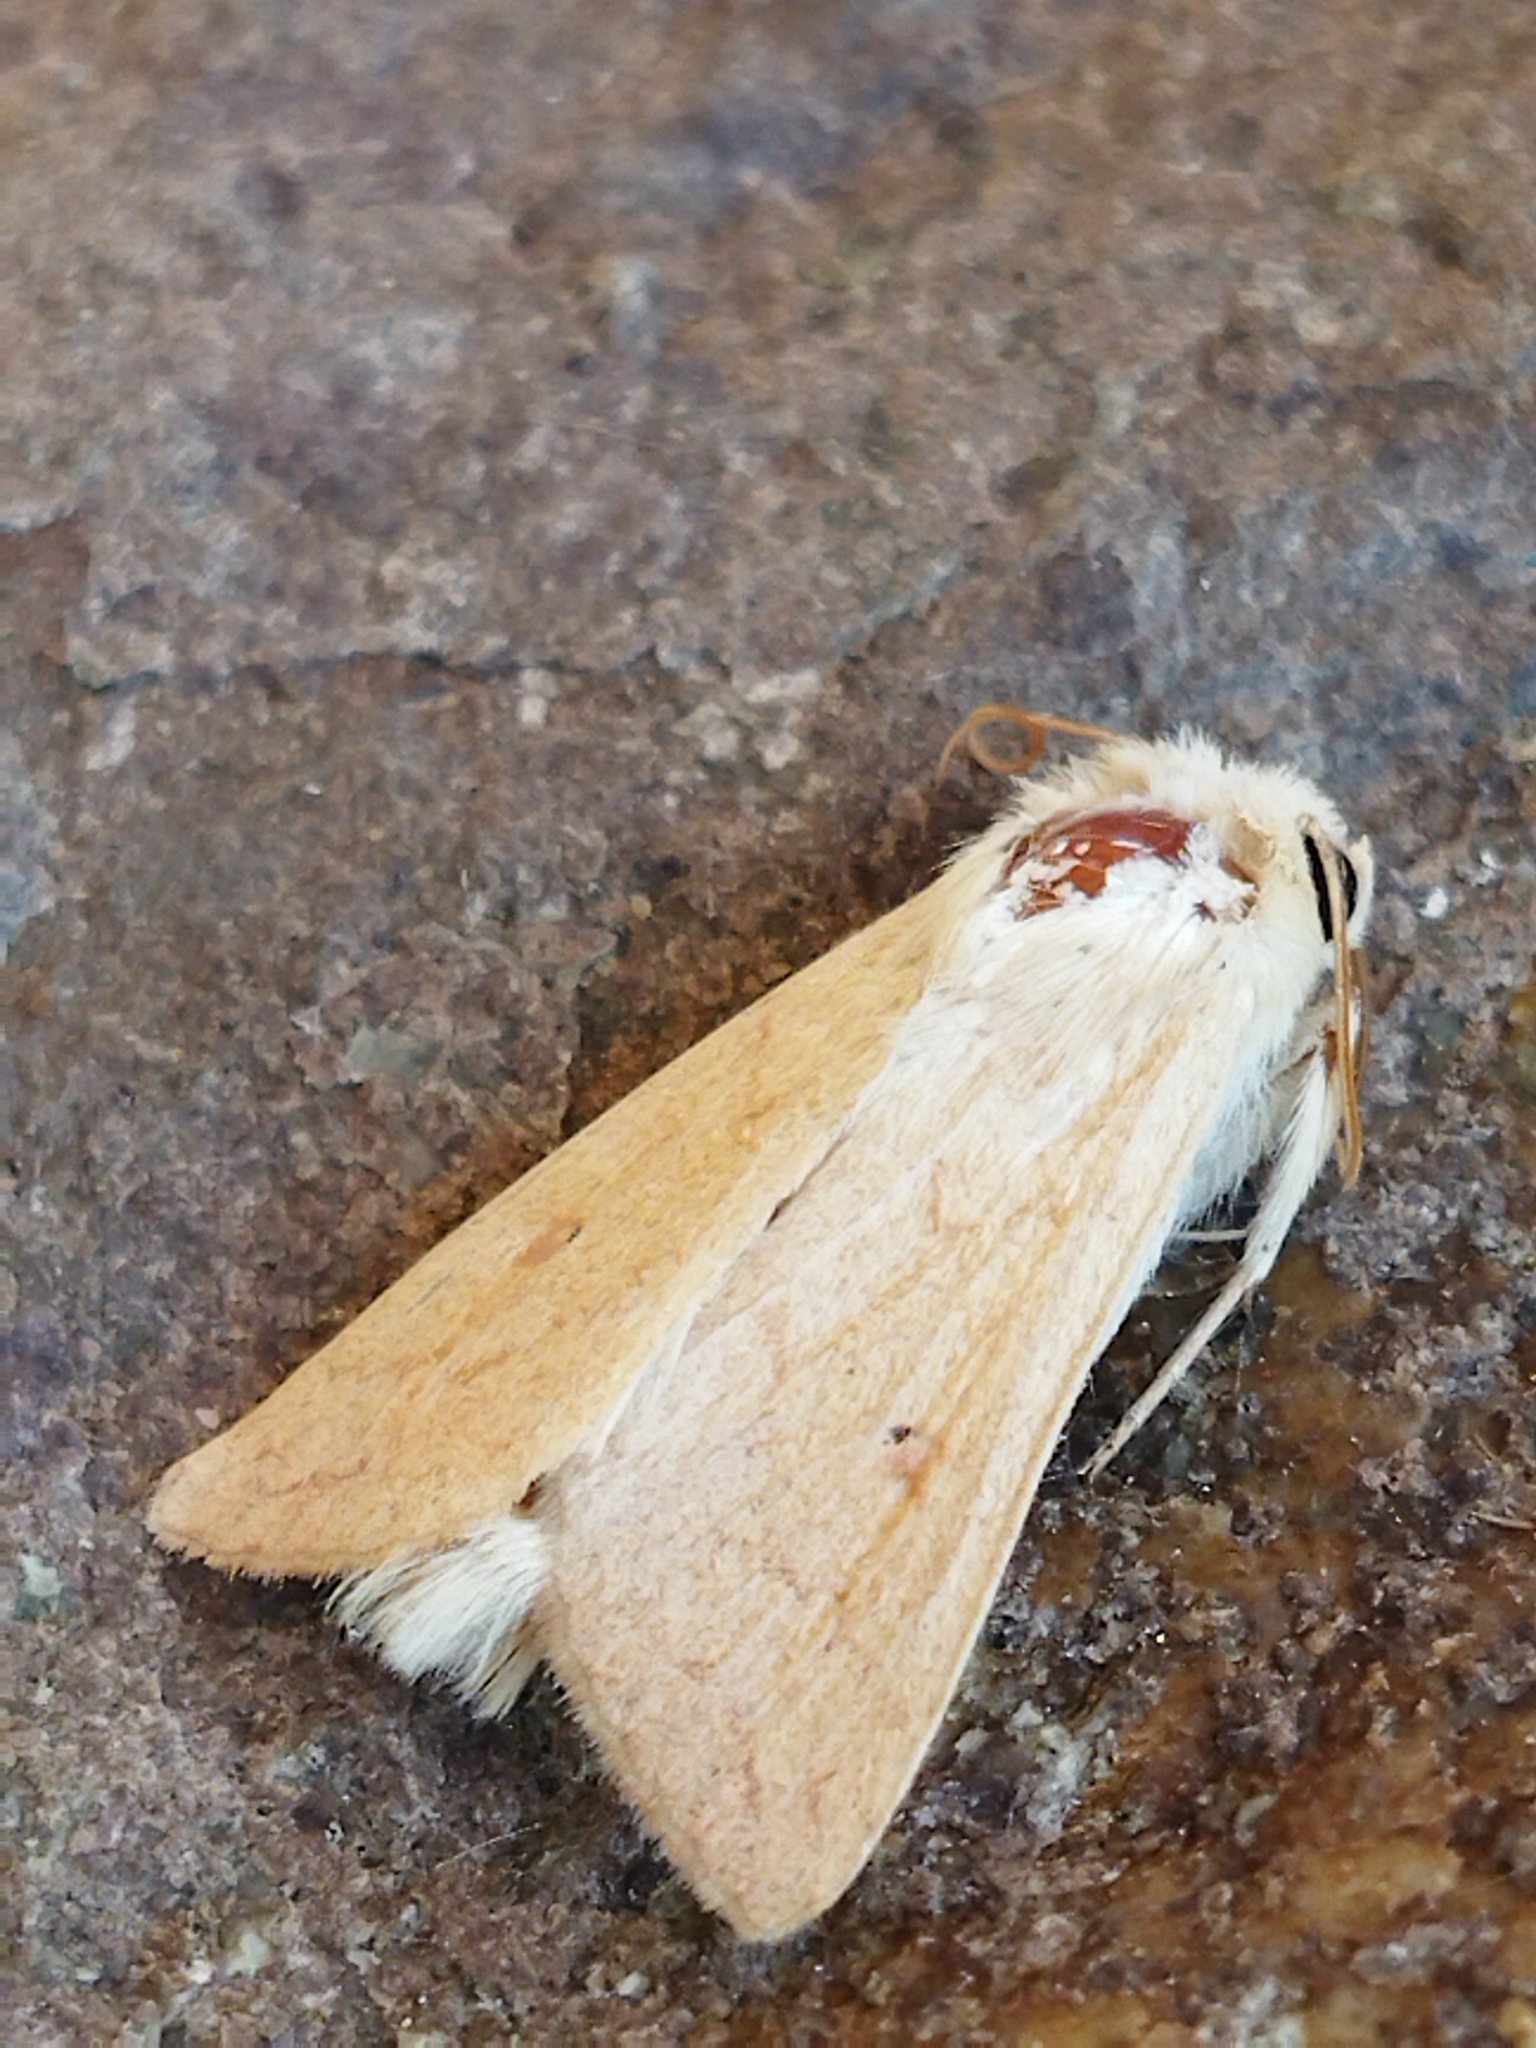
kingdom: Animalia
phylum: Arthropoda
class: Insecta
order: Lepidoptera
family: Noctuidae
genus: Mythimna
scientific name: Mythimna vitellina
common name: Delicate
